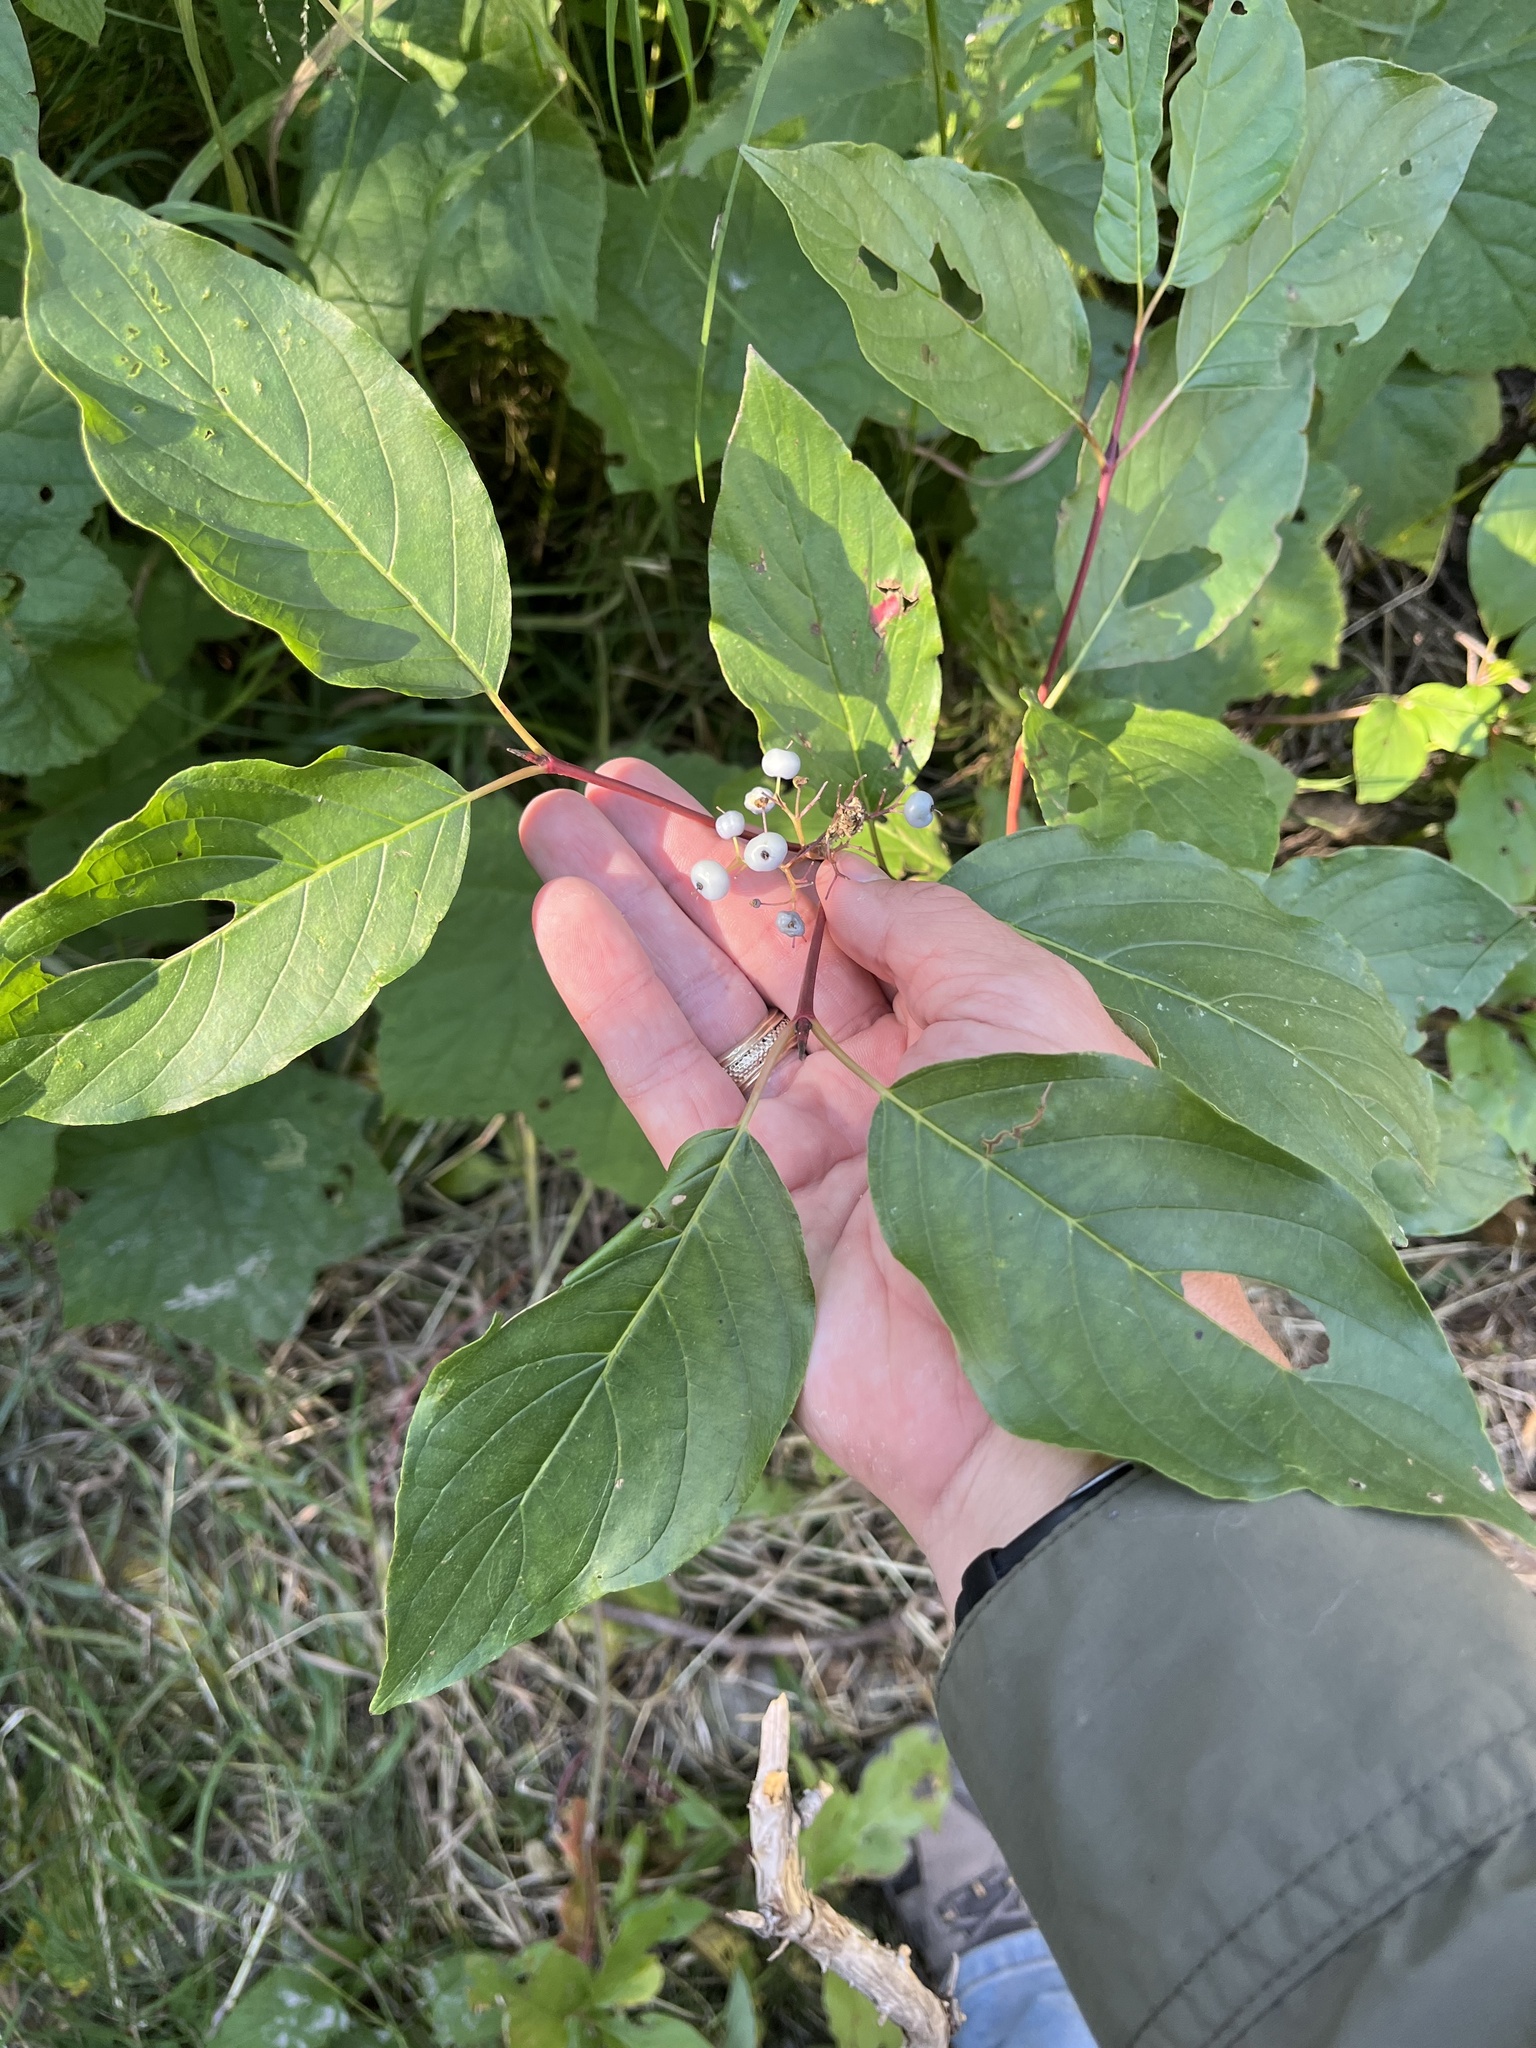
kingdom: Plantae
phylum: Tracheophyta
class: Magnoliopsida
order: Cornales
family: Cornaceae
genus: Cornus
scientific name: Cornus sericea
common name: Red-osier dogwood
